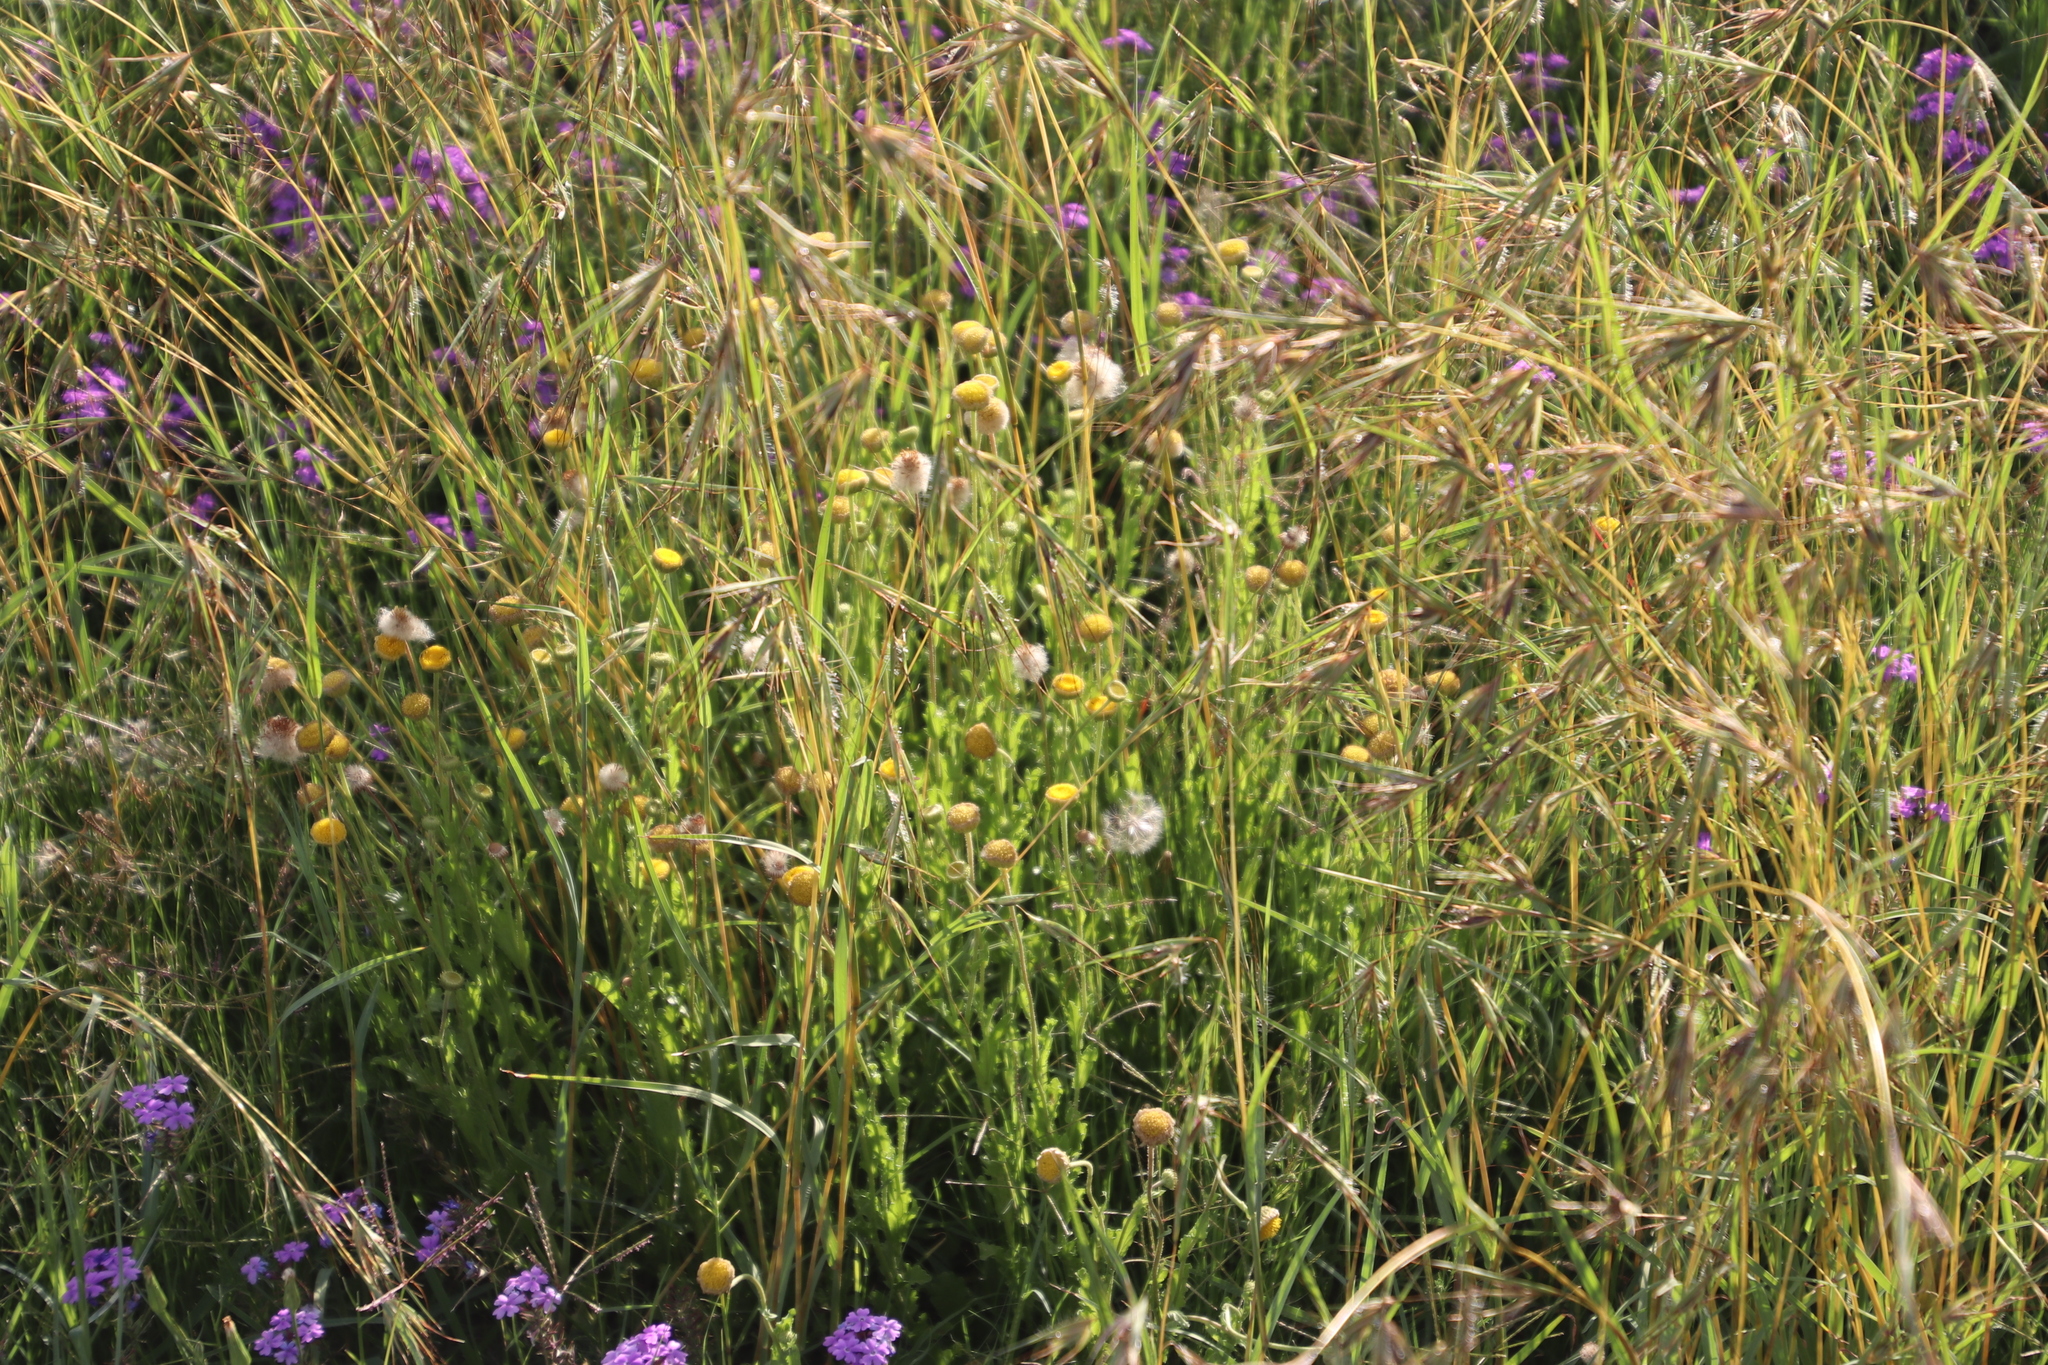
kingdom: Plantae
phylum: Tracheophyta
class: Magnoliopsida
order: Asterales
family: Asteraceae
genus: Nidorella
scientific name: Nidorella podocephala
